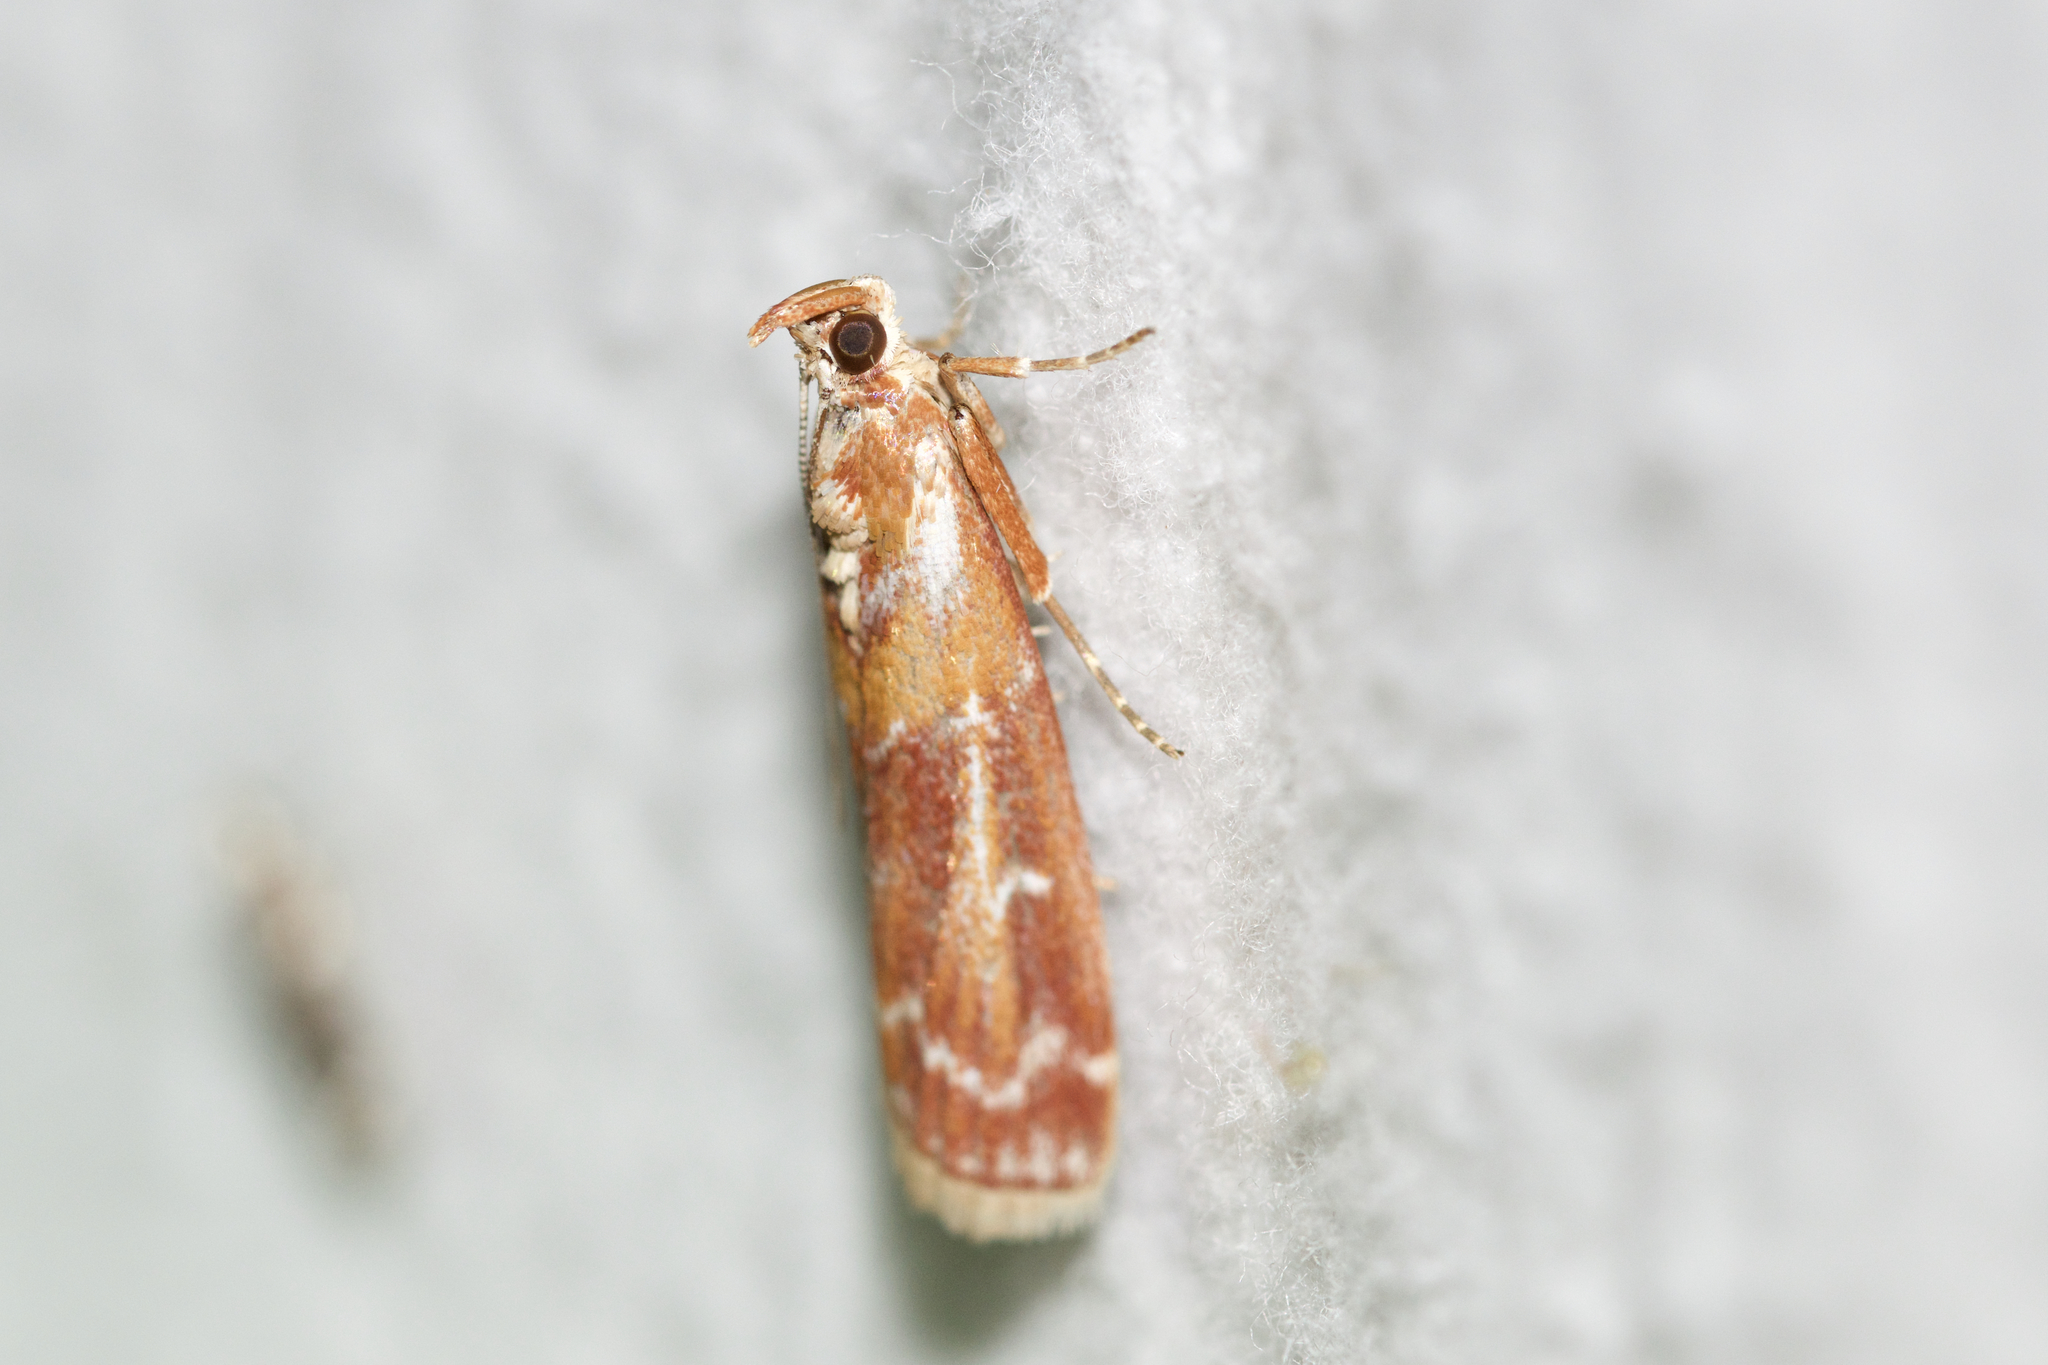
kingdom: Animalia
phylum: Arthropoda
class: Insecta
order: Lepidoptera
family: Pyralidae
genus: Dioryctria
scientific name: Dioryctria disclusa
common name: Rusty pine cone moth
